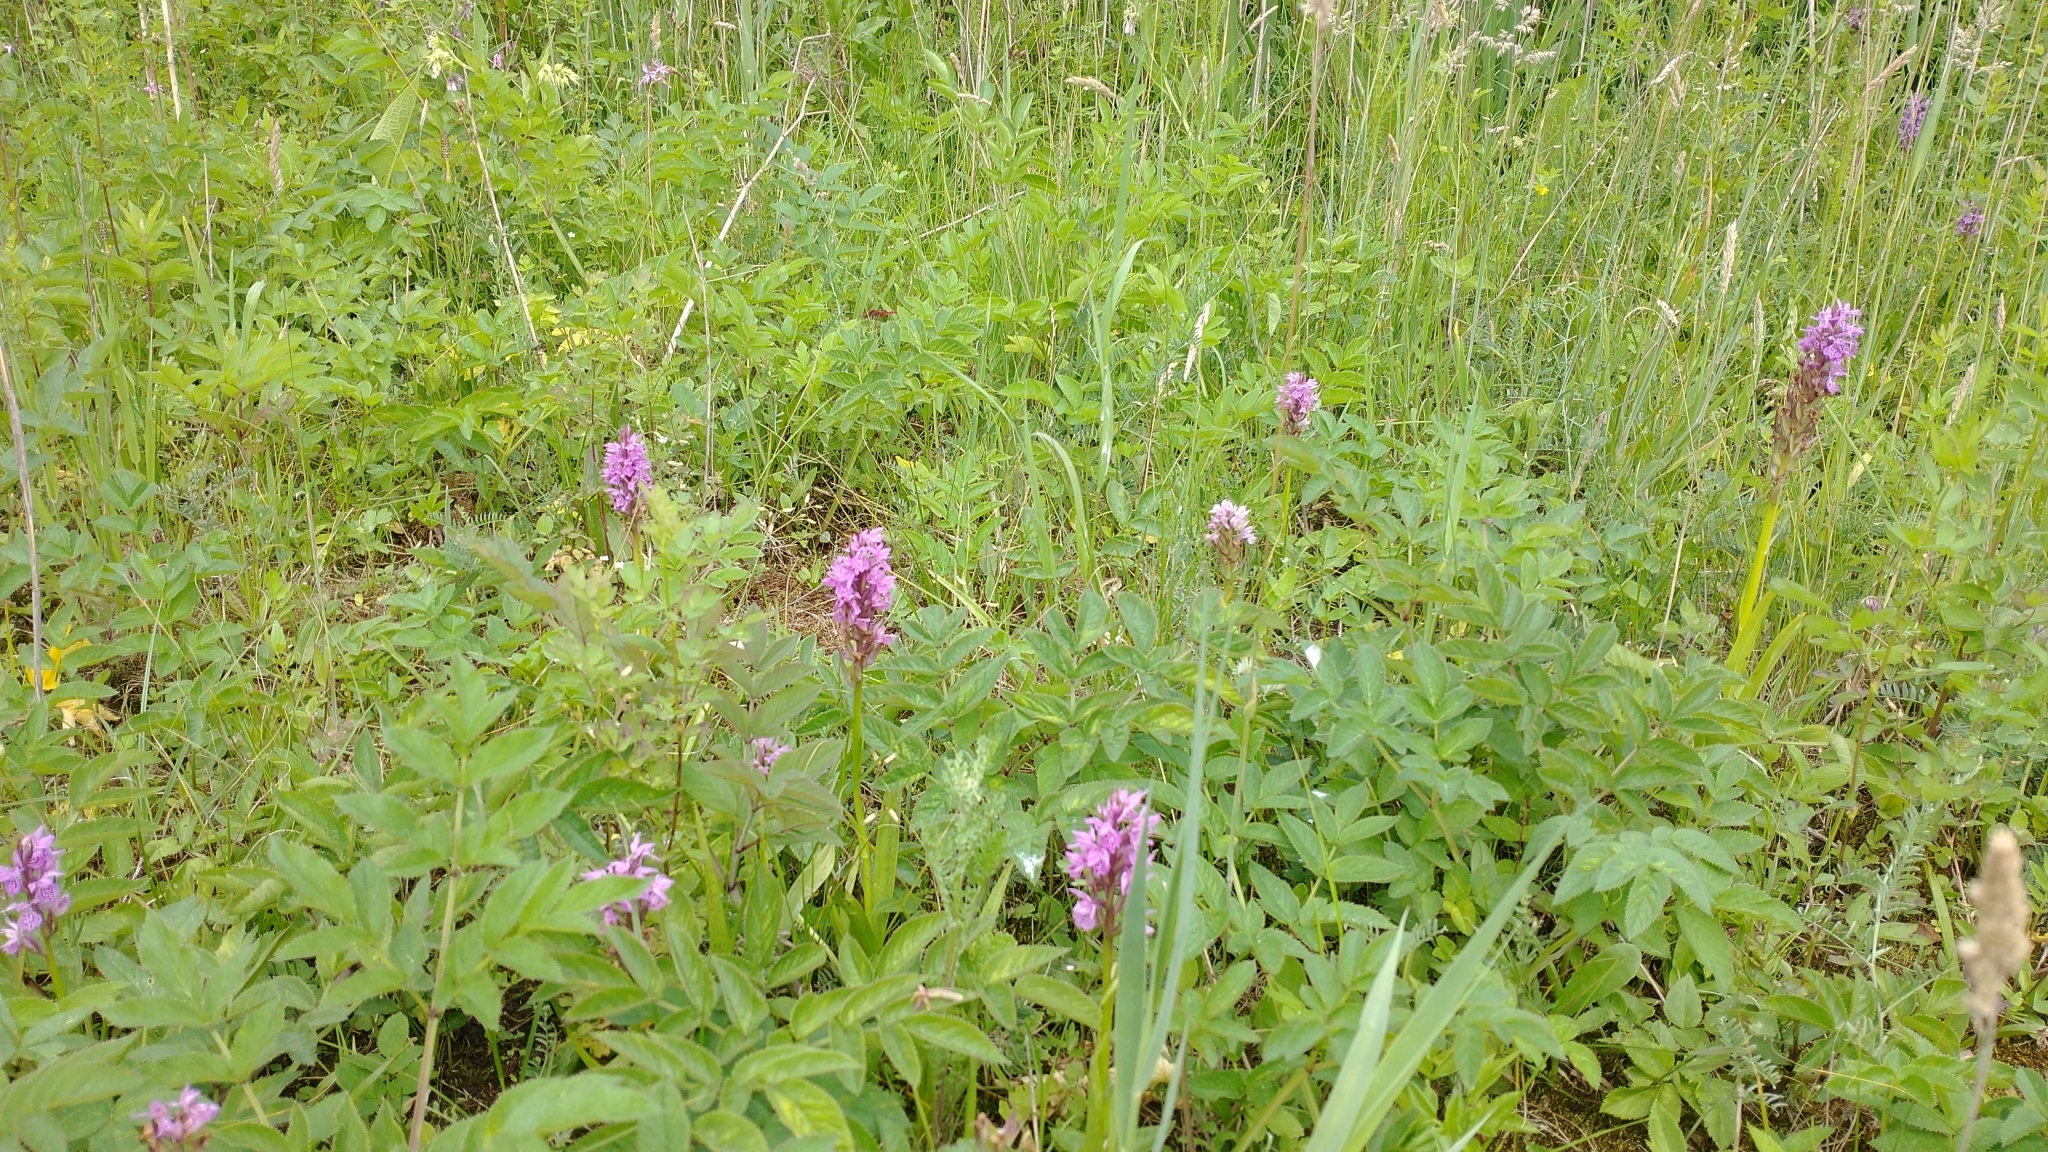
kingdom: Plantae
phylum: Tracheophyta
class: Liliopsida
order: Asparagales
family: Orchidaceae
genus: Dactylorhiza
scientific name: Dactylorhiza majalis
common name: Marsh orchid
